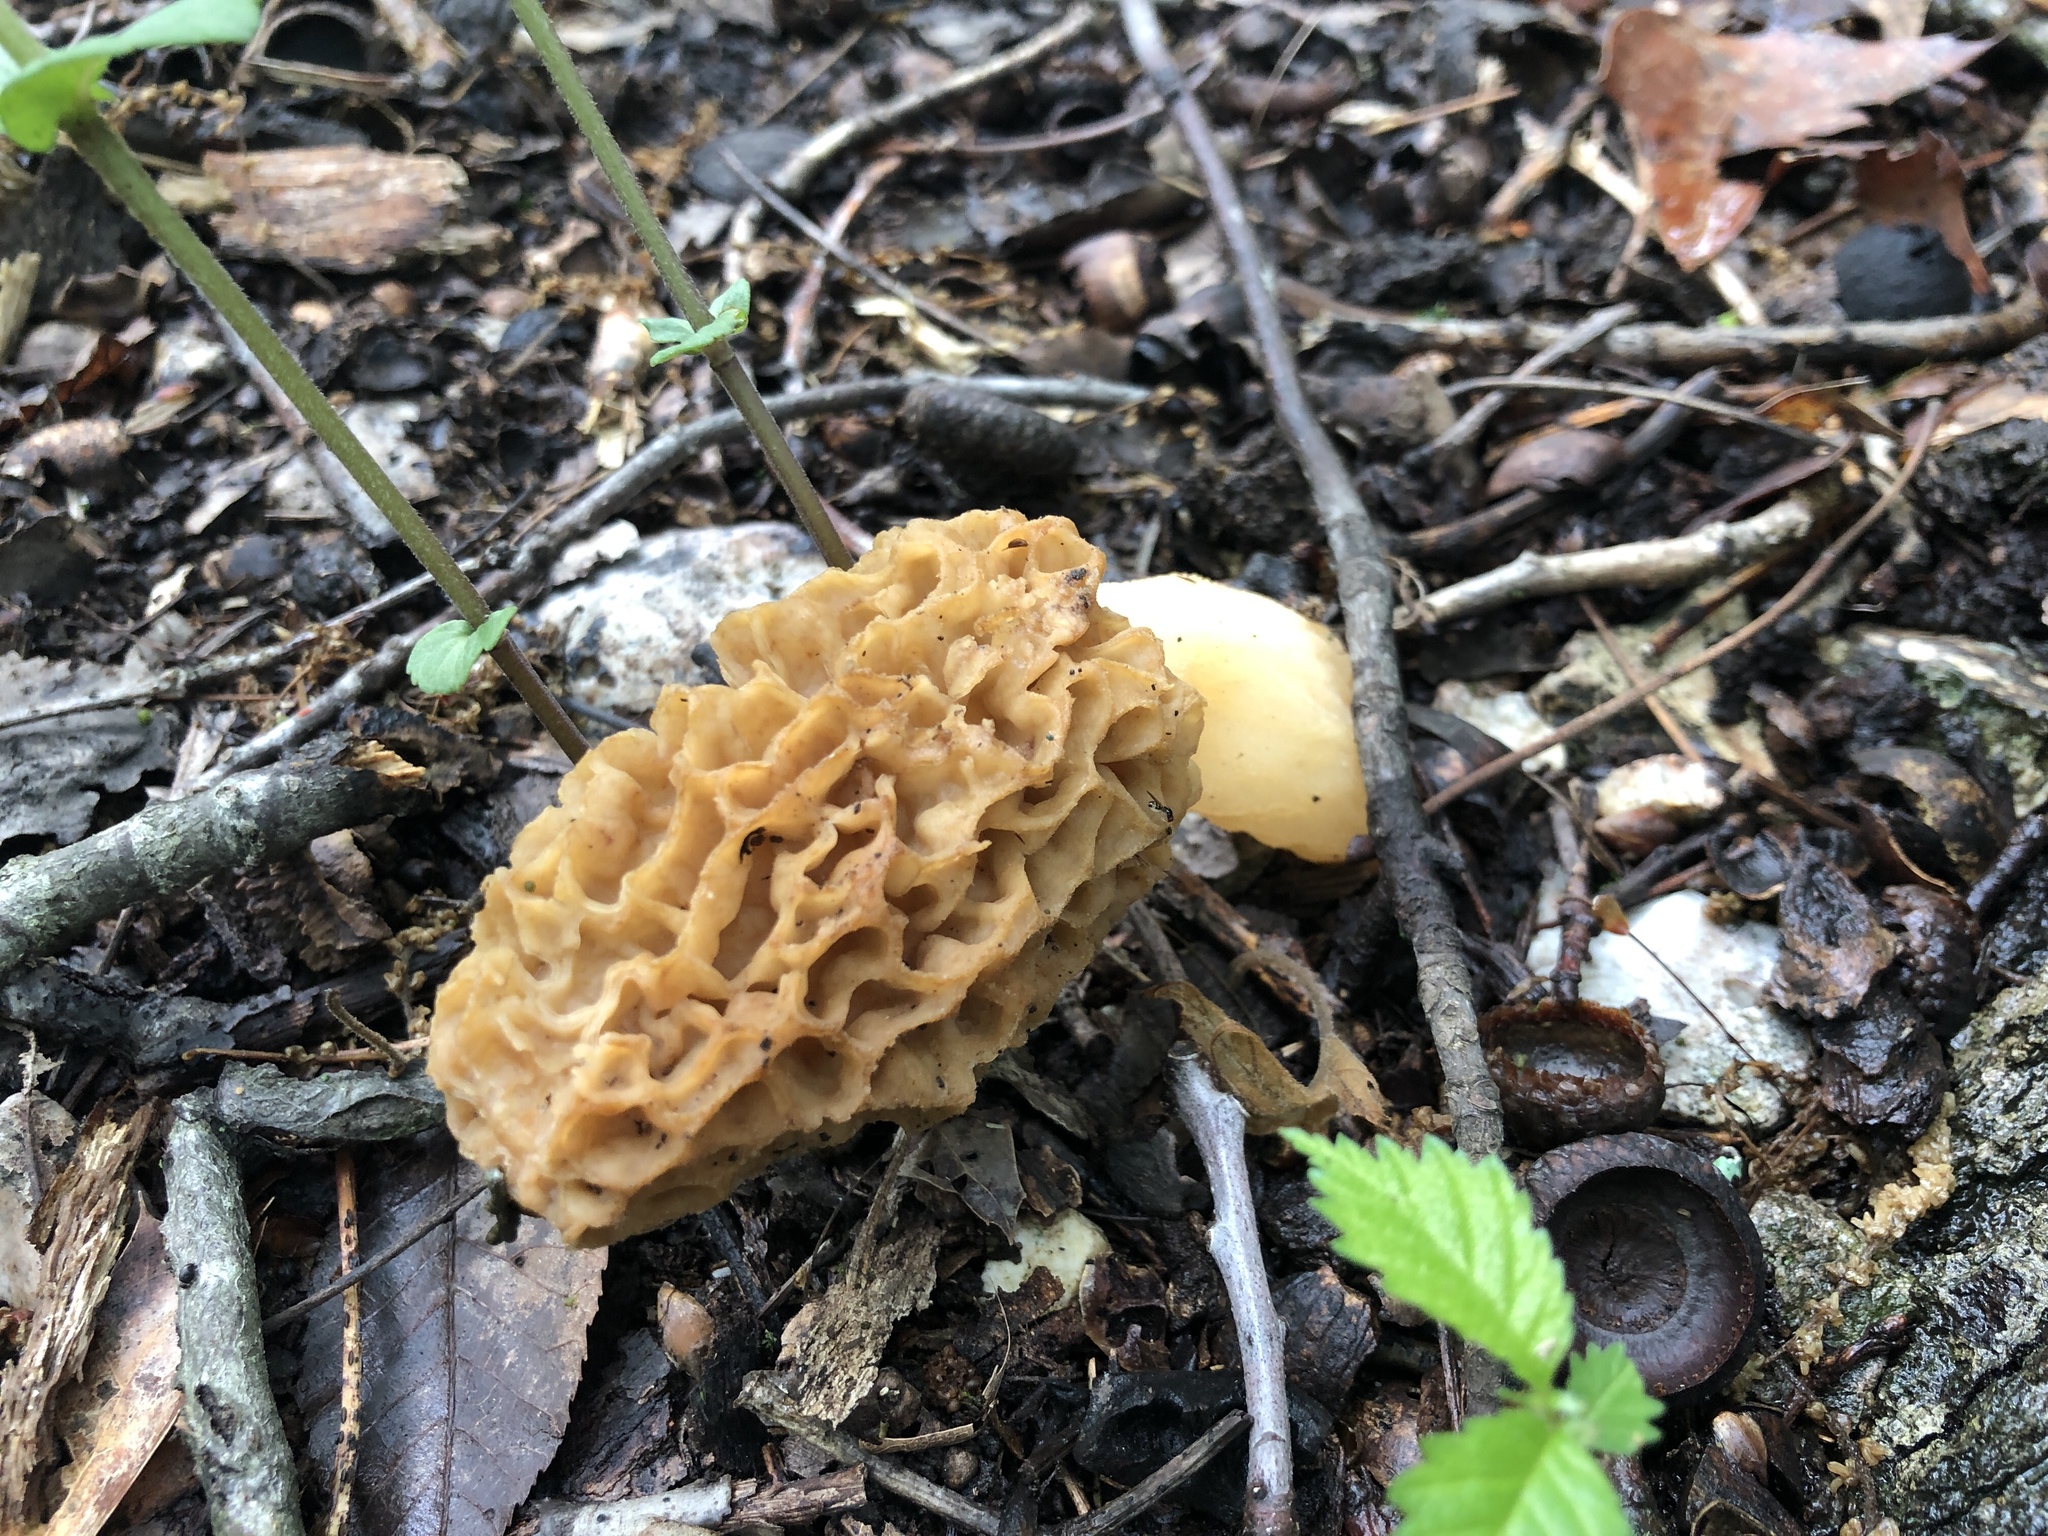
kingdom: Fungi
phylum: Ascomycota
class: Pezizomycetes
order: Pezizales
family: Morchellaceae
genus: Morchella
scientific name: Morchella americana
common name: White morel
